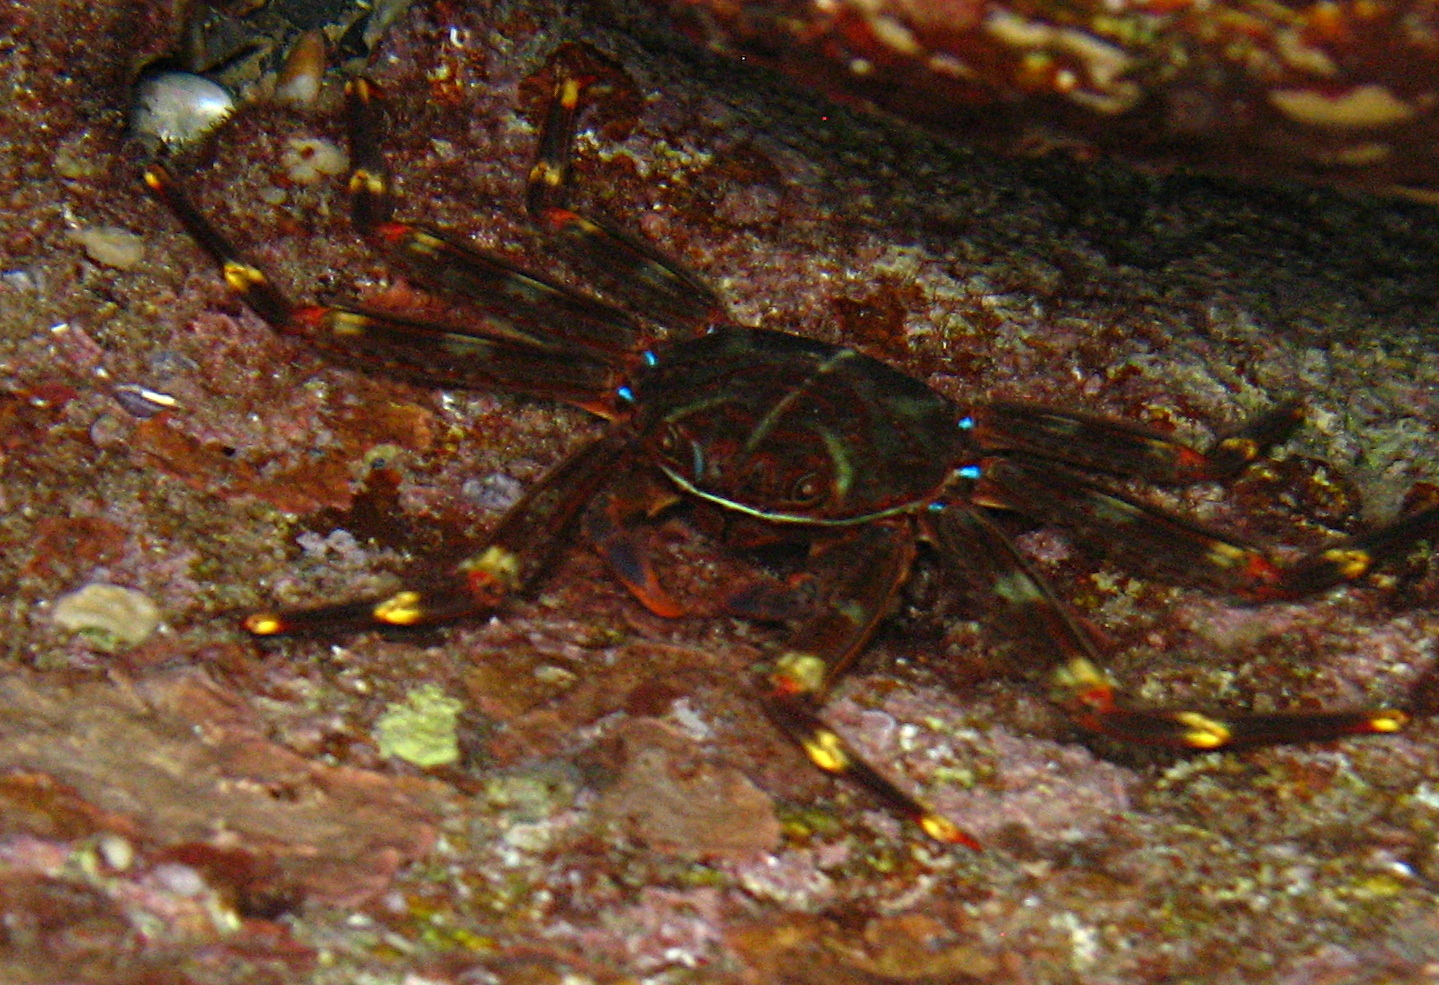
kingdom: Animalia
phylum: Arthropoda
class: Malacostraca
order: Decapoda
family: Percnidae
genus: Percnon
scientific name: Percnon gibbesi
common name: Nimble spray crab
